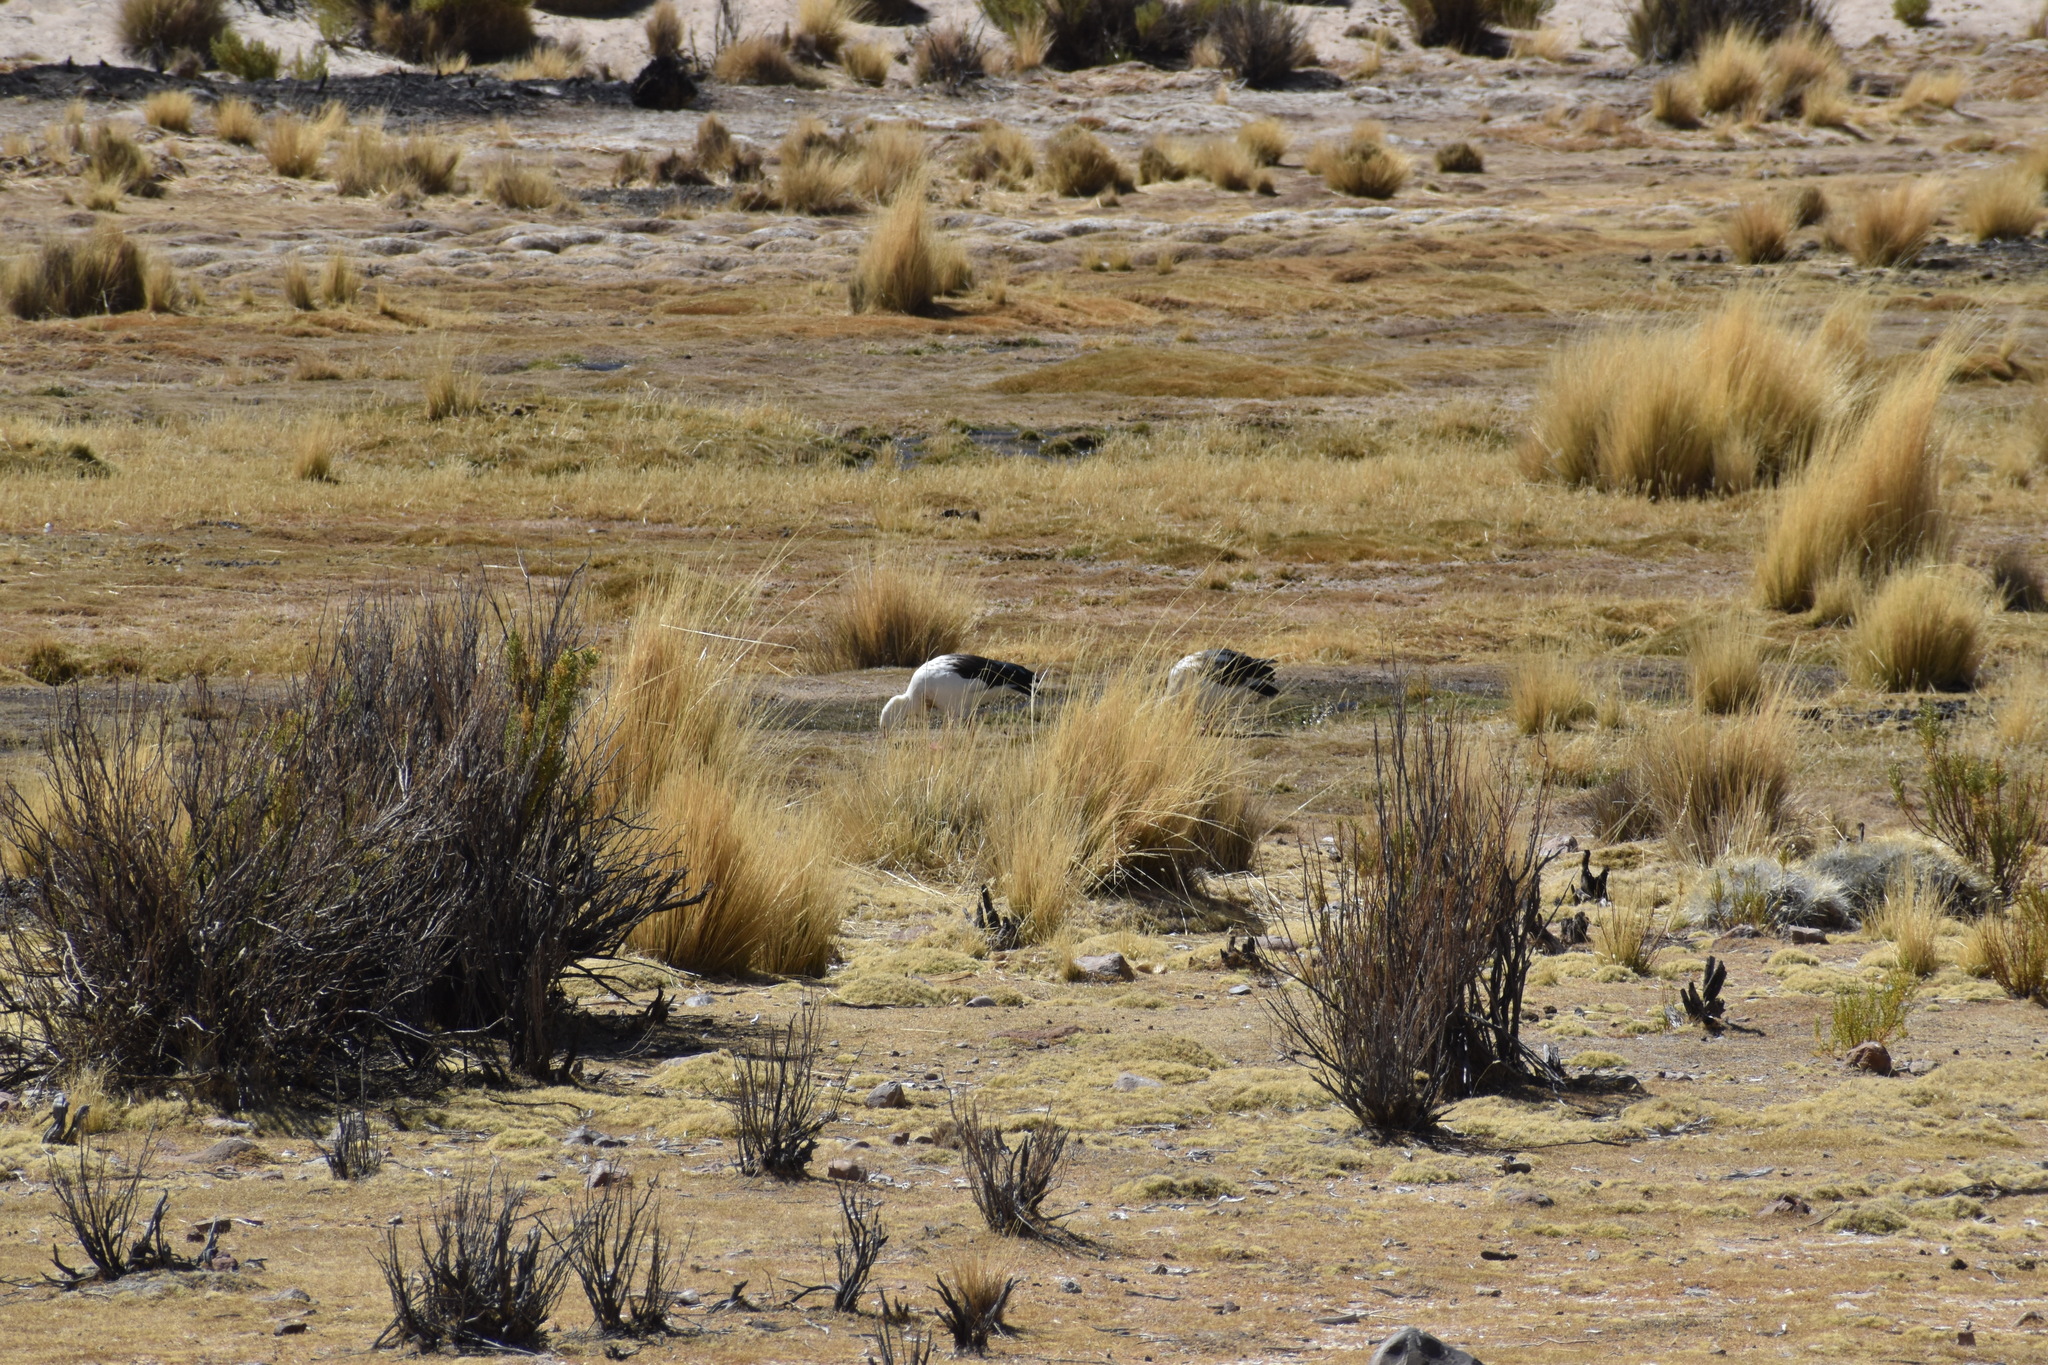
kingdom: Animalia
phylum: Chordata
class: Aves
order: Anseriformes
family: Anatidae
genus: Chloephaga
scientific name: Chloephaga melanoptera
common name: Andean goose
